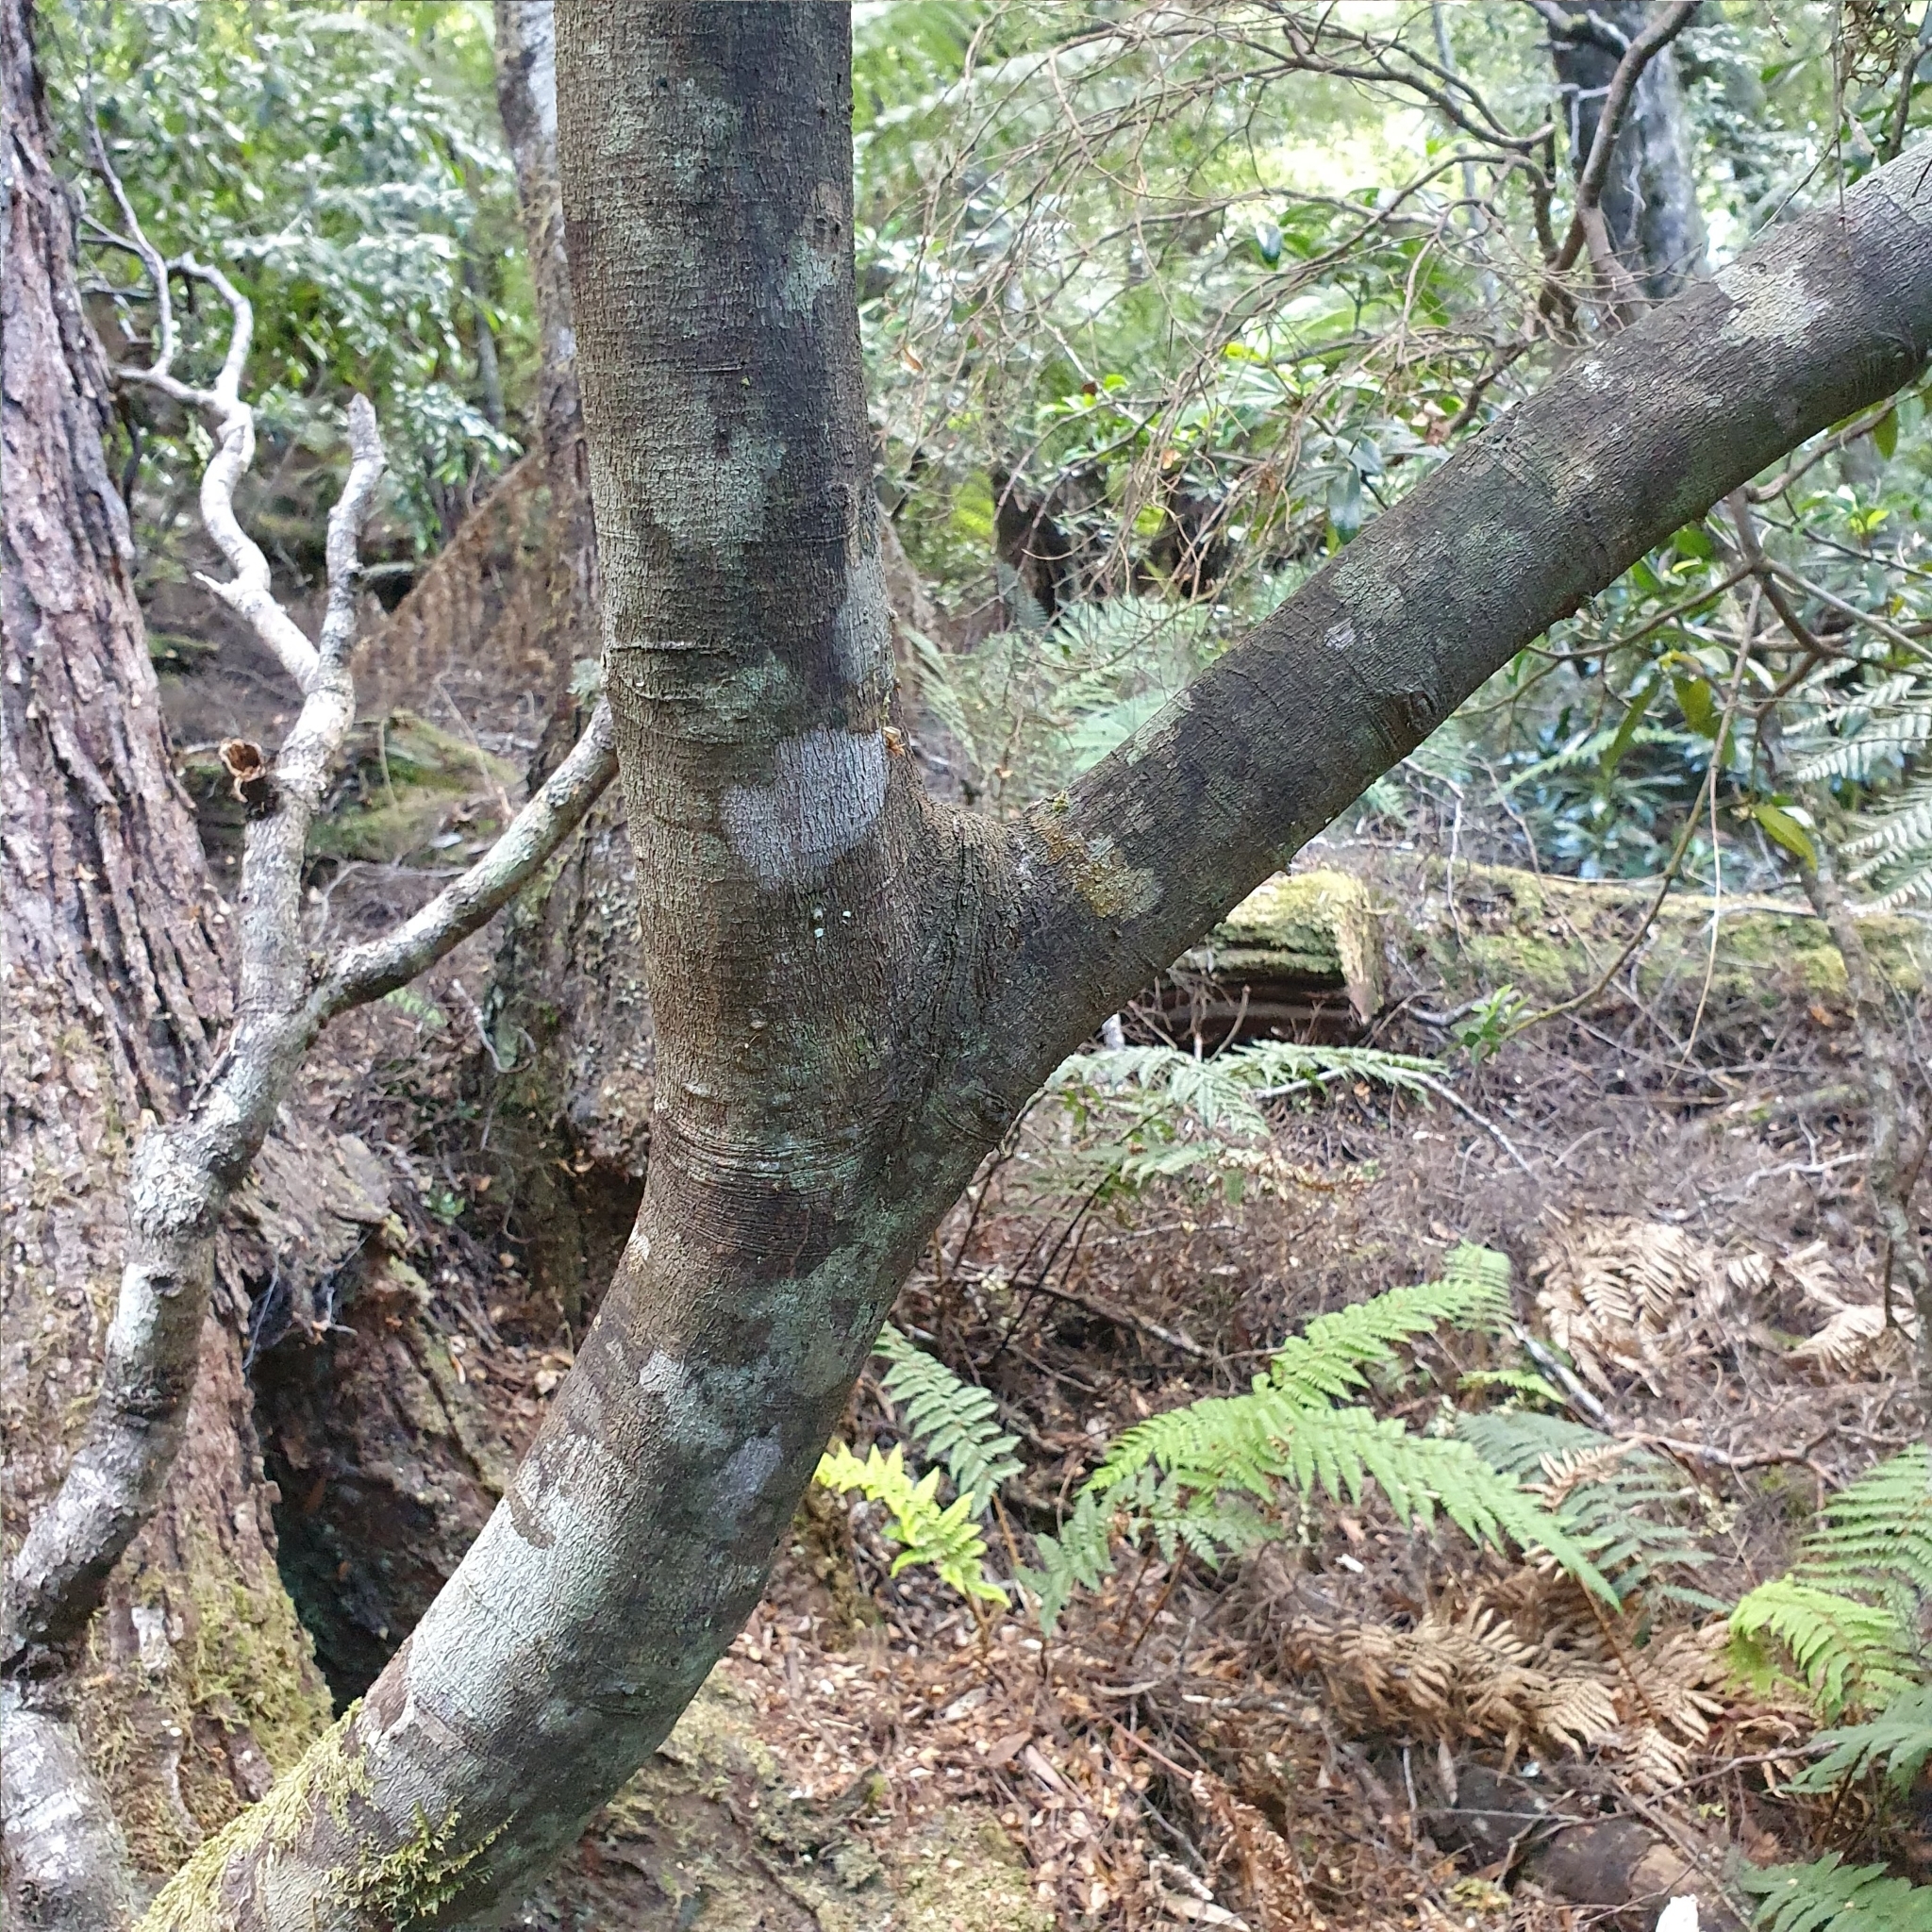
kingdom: Plantae
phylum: Tracheophyta
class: Magnoliopsida
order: Sapindales
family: Rutaceae
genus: Acradenia
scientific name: Acradenia frankliniae
